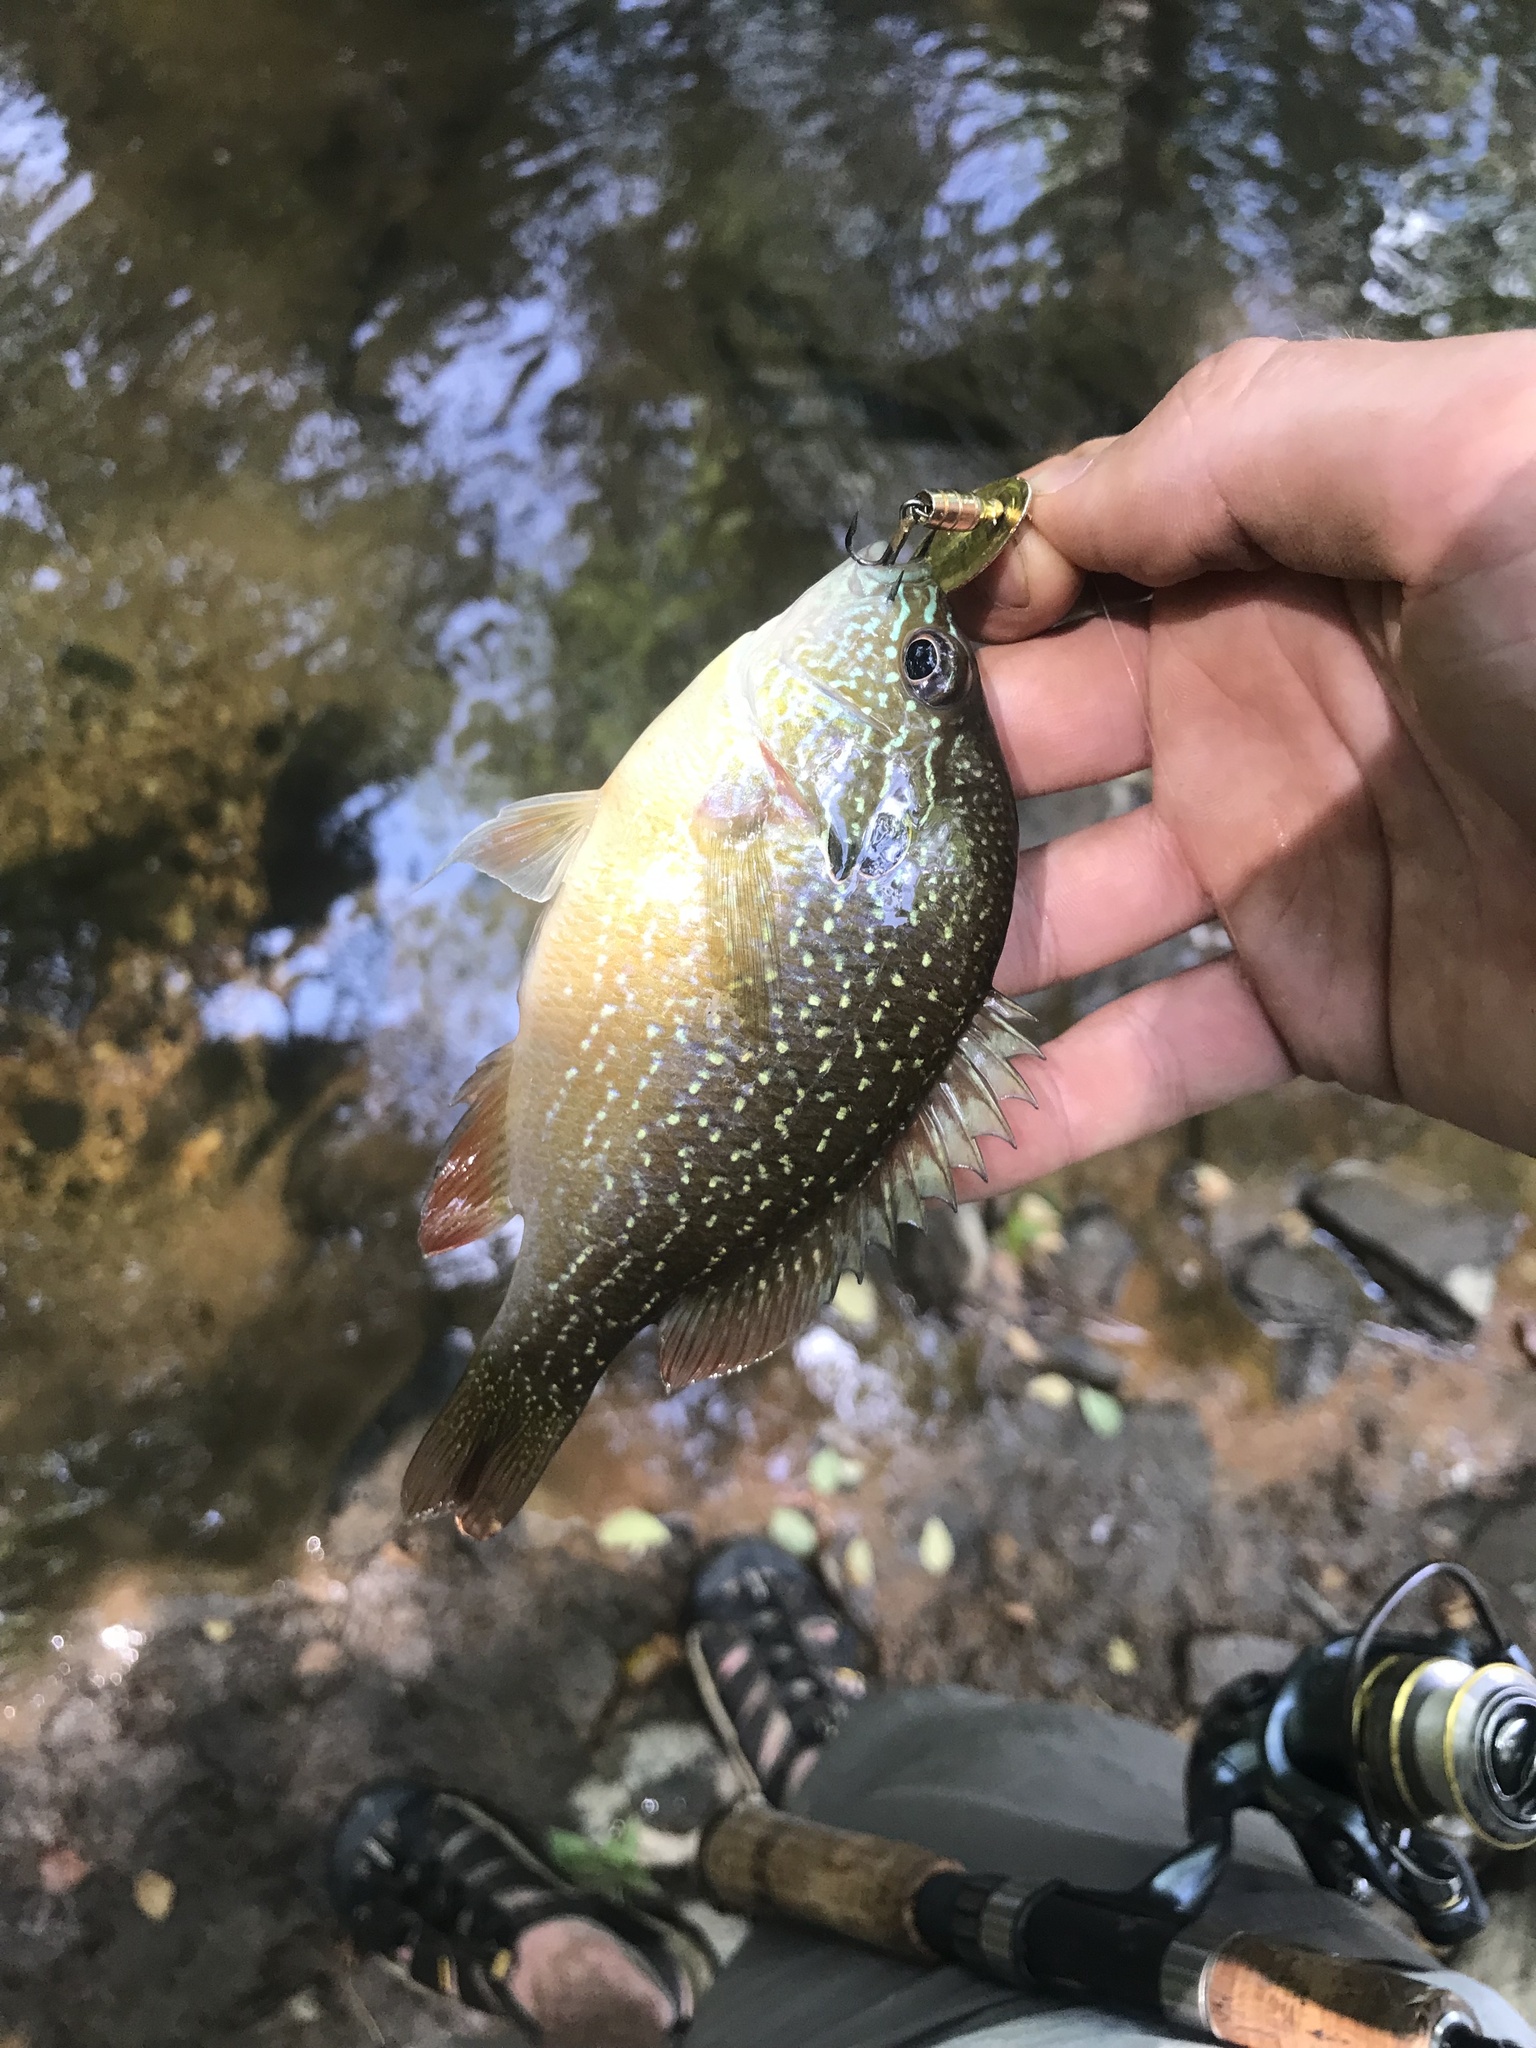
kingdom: Animalia
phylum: Chordata
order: Perciformes
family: Centrarchidae
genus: Lepomis
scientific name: Lepomis megalotis
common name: Longear sunfish
